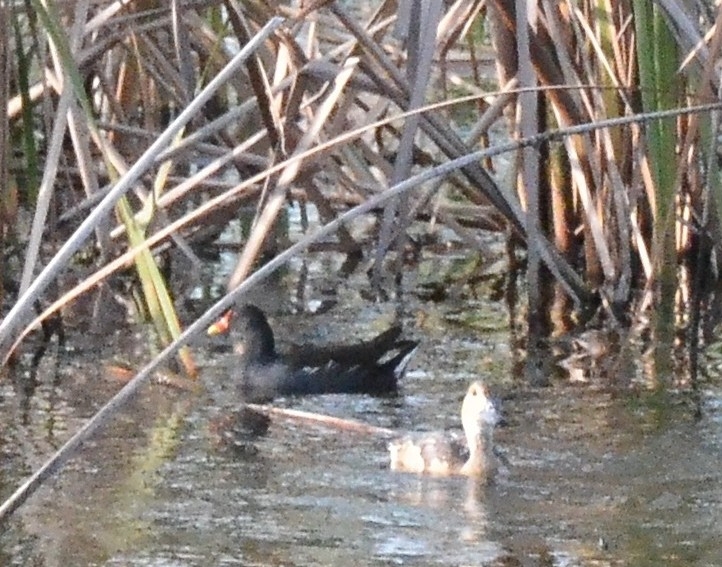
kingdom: Animalia
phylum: Chordata
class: Aves
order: Gruiformes
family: Rallidae
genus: Gallinula
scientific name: Gallinula chloropus
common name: Common moorhen
